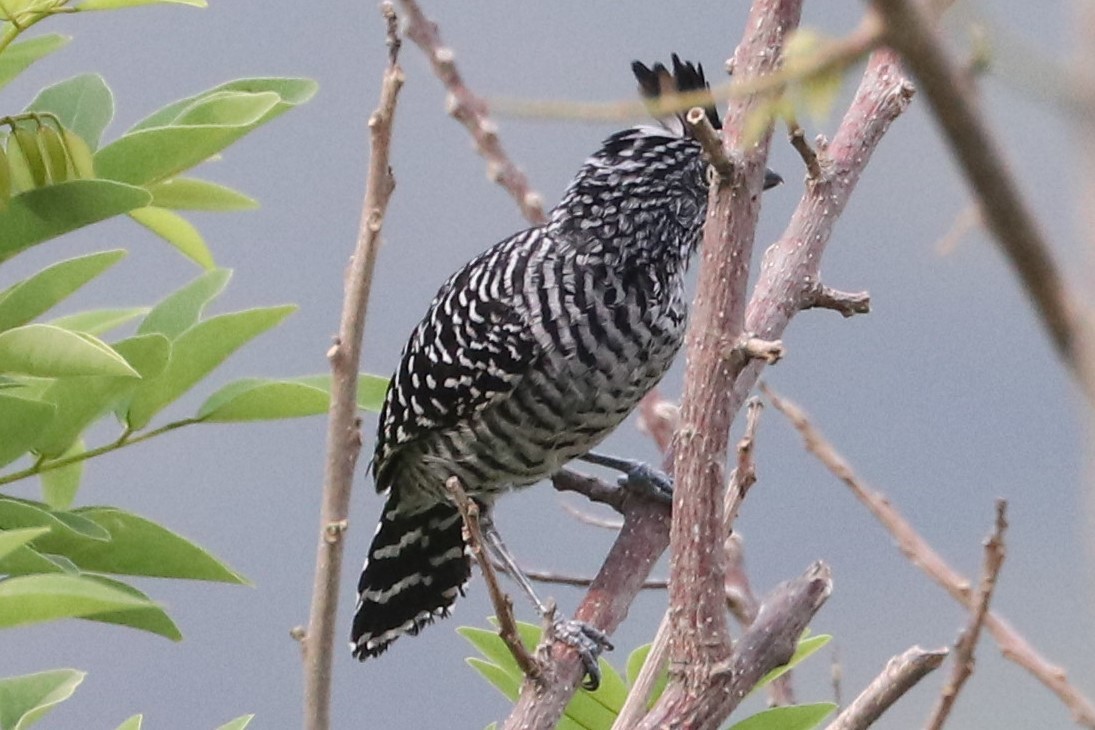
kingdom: Animalia
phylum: Chordata
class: Aves
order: Passeriformes
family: Thamnophilidae
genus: Thamnophilus
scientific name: Thamnophilus doliatus
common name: Barred antshrike
